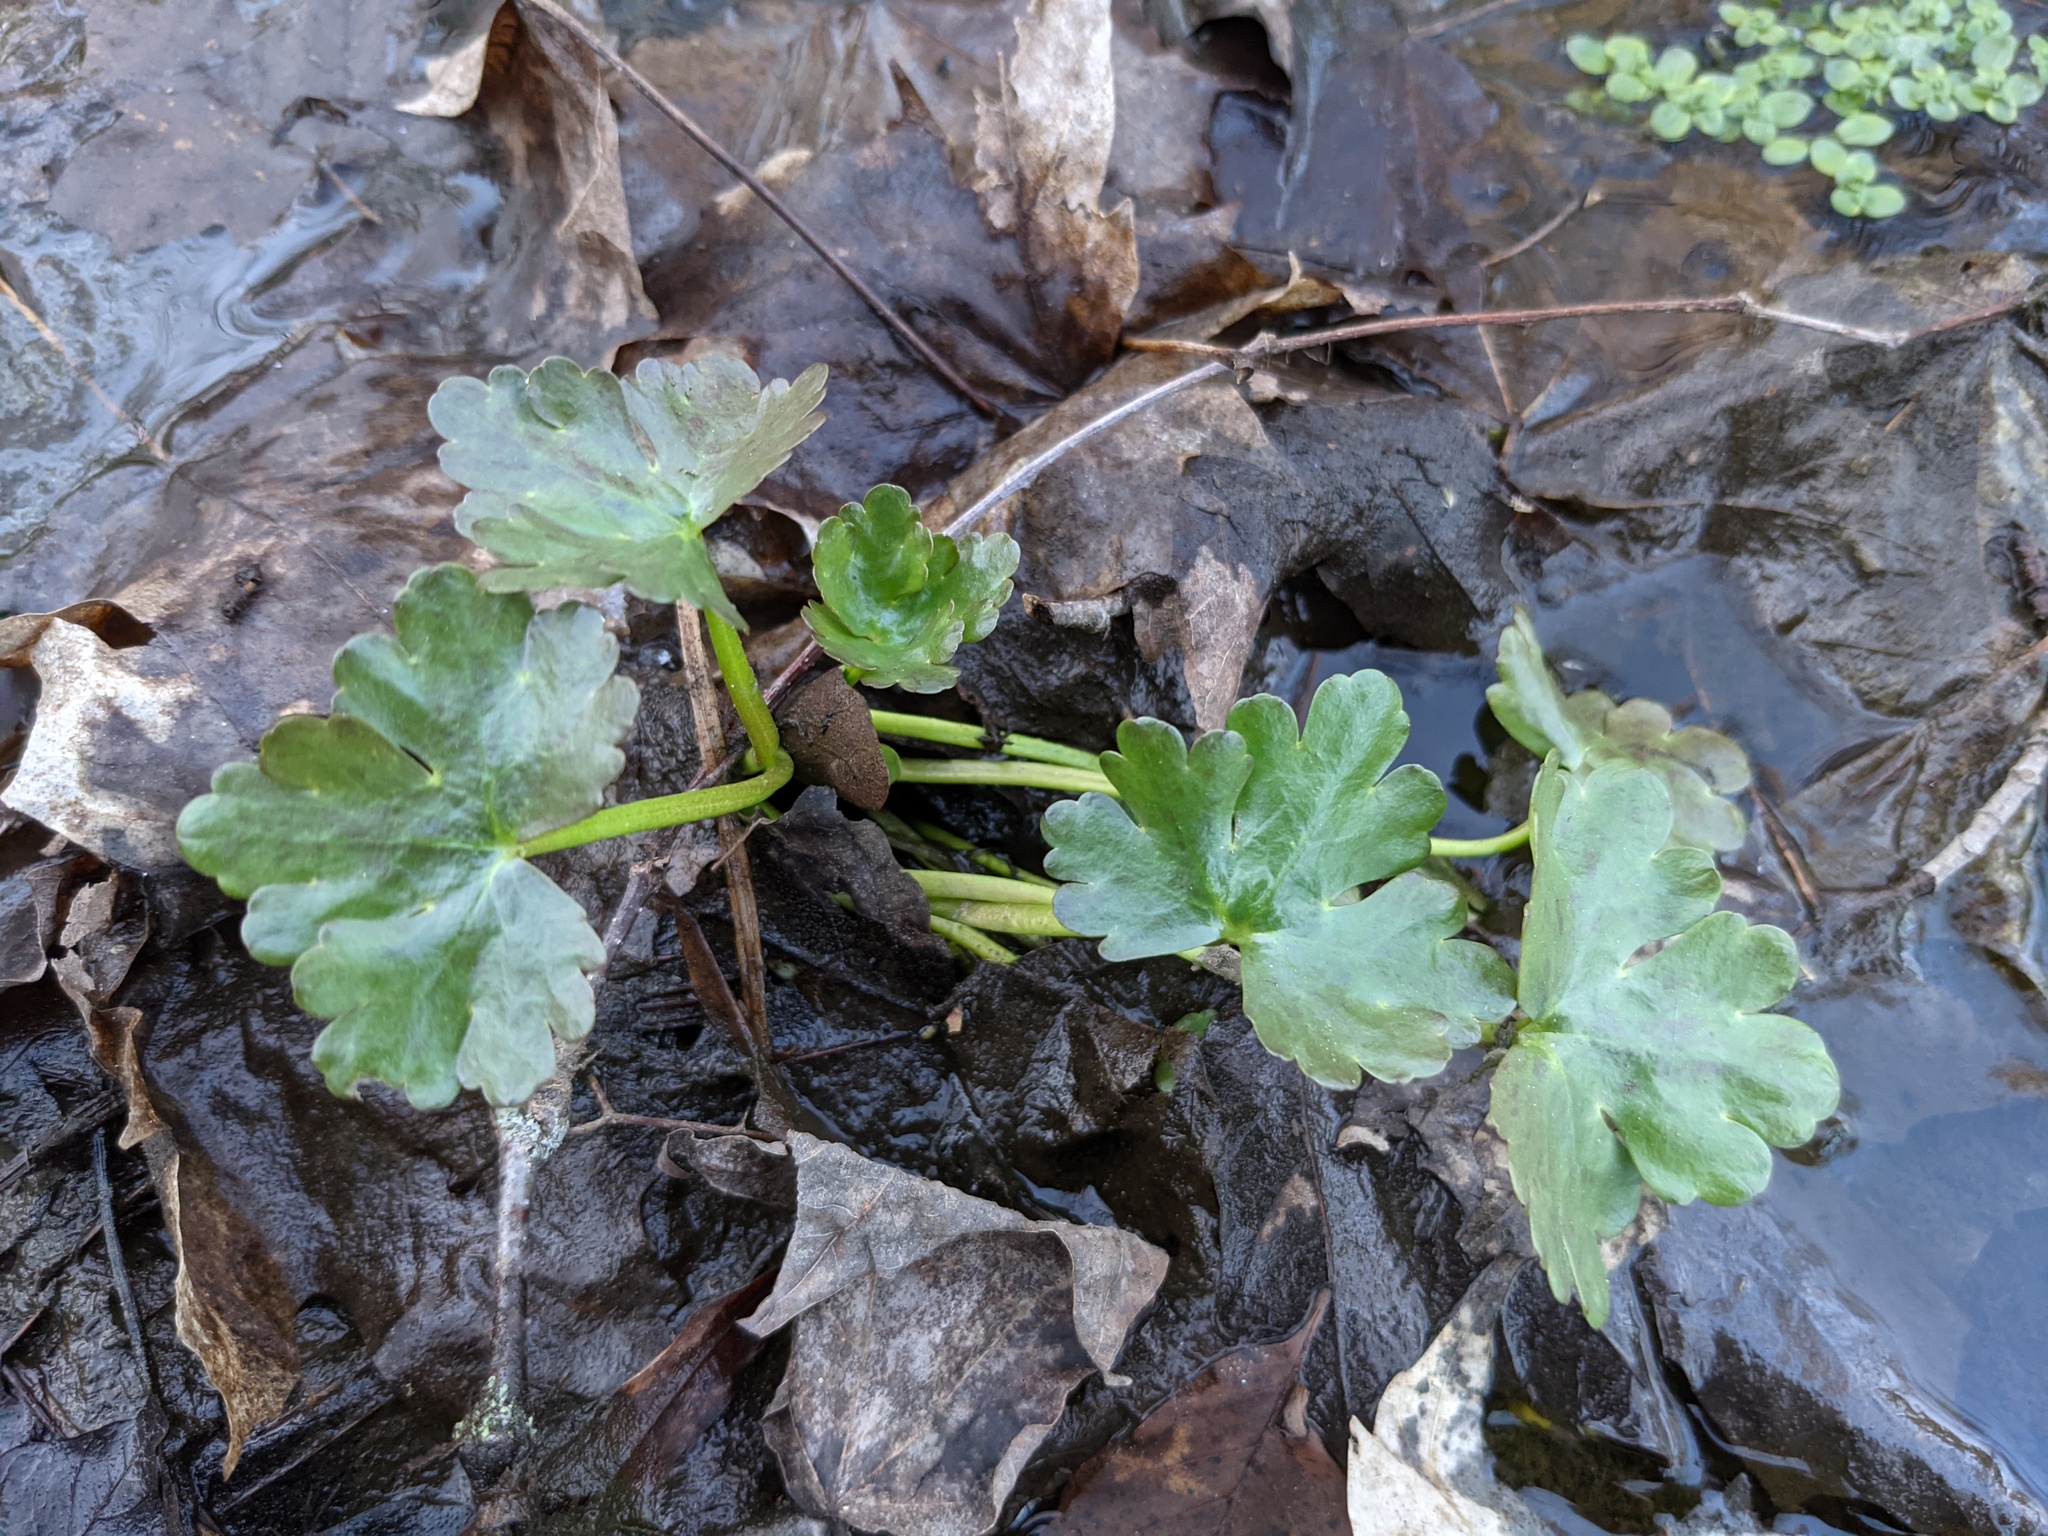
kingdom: Plantae
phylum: Tracheophyta
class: Magnoliopsida
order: Ranunculales
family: Ranunculaceae
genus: Ranunculus
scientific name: Ranunculus sceleratus
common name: Celery-leaved buttercup
